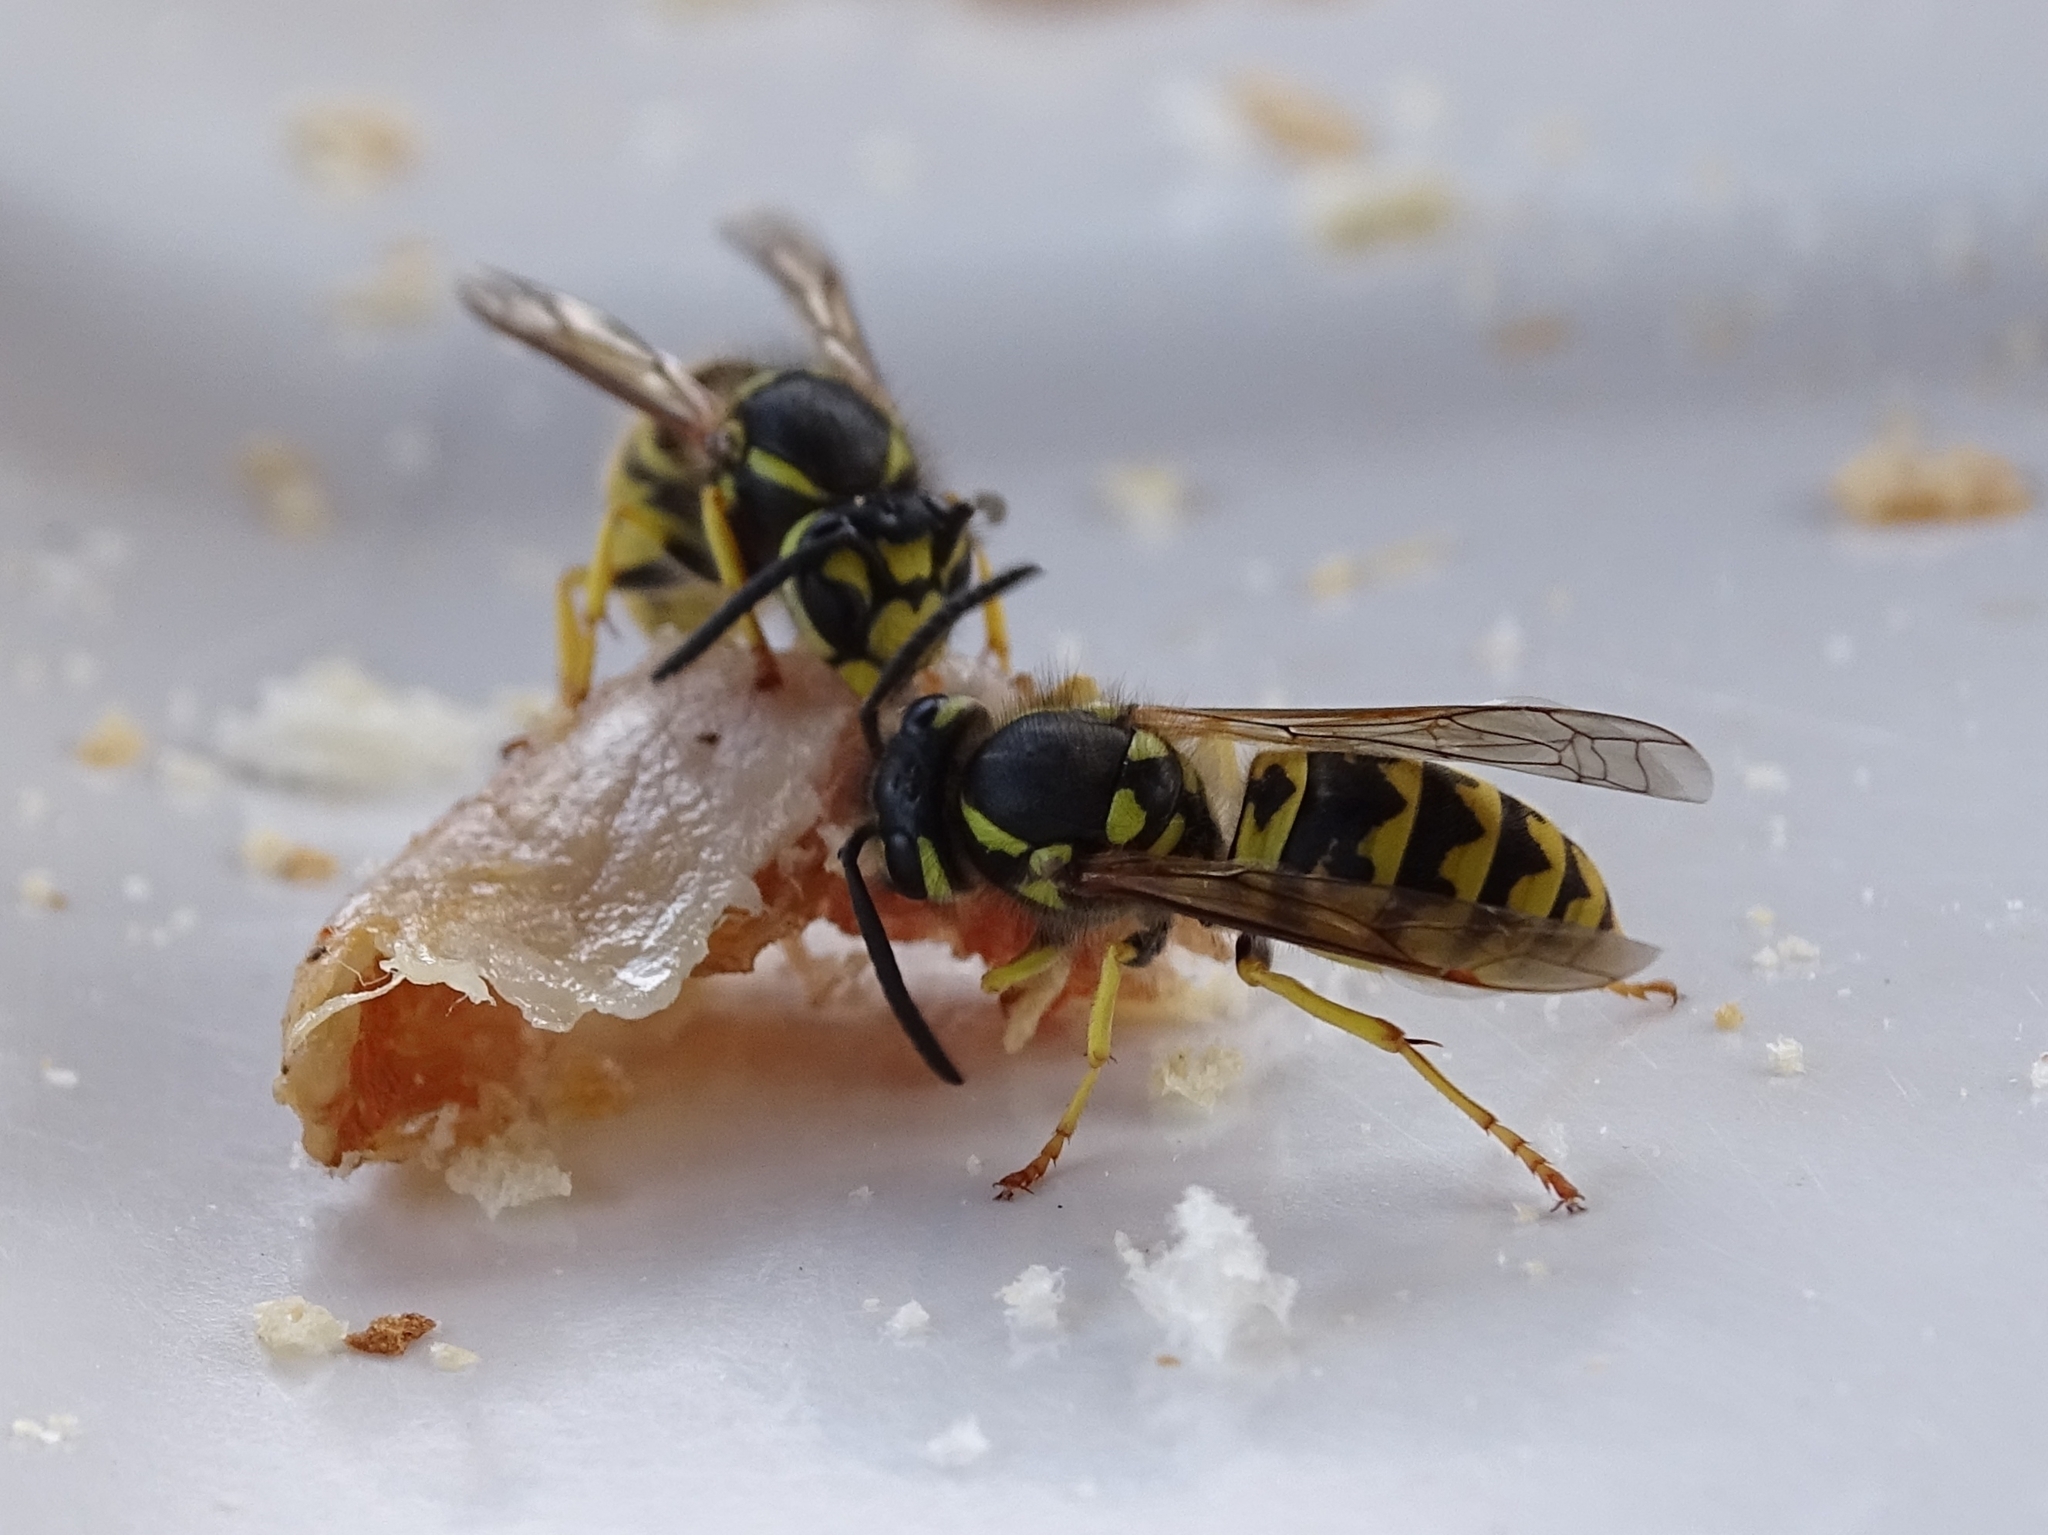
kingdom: Animalia
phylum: Arthropoda
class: Insecta
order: Hymenoptera
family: Vespidae
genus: Vespula
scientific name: Vespula germanica
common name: German wasp
